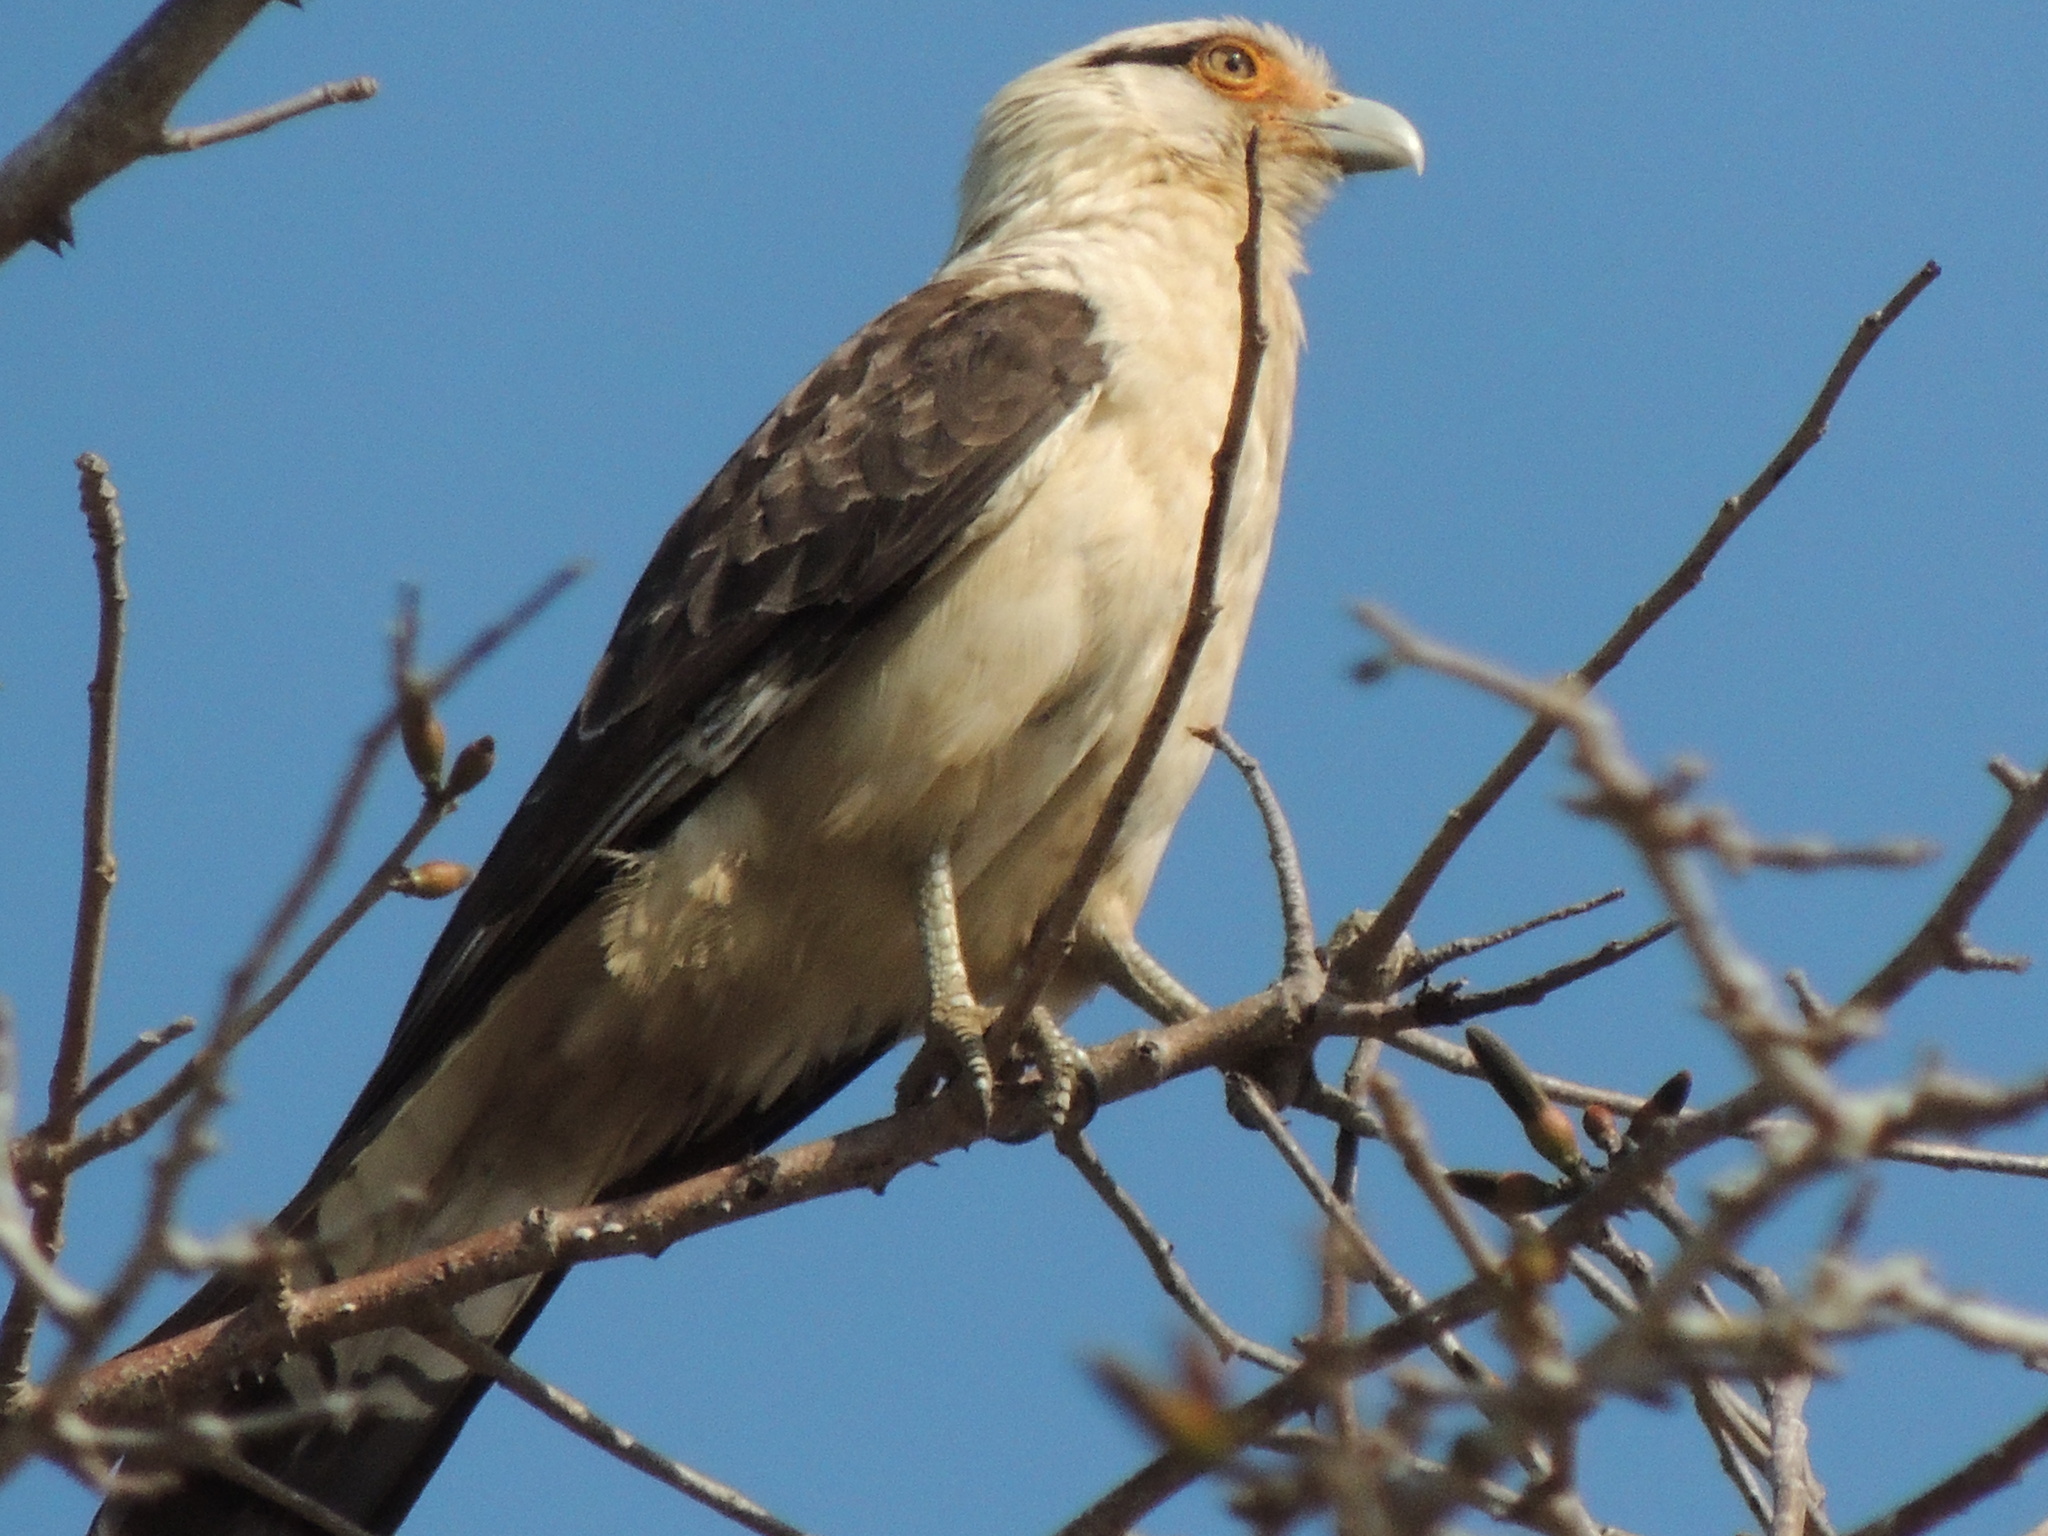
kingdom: Animalia
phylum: Chordata
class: Aves
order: Falconiformes
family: Falconidae
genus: Daptrius
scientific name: Daptrius
